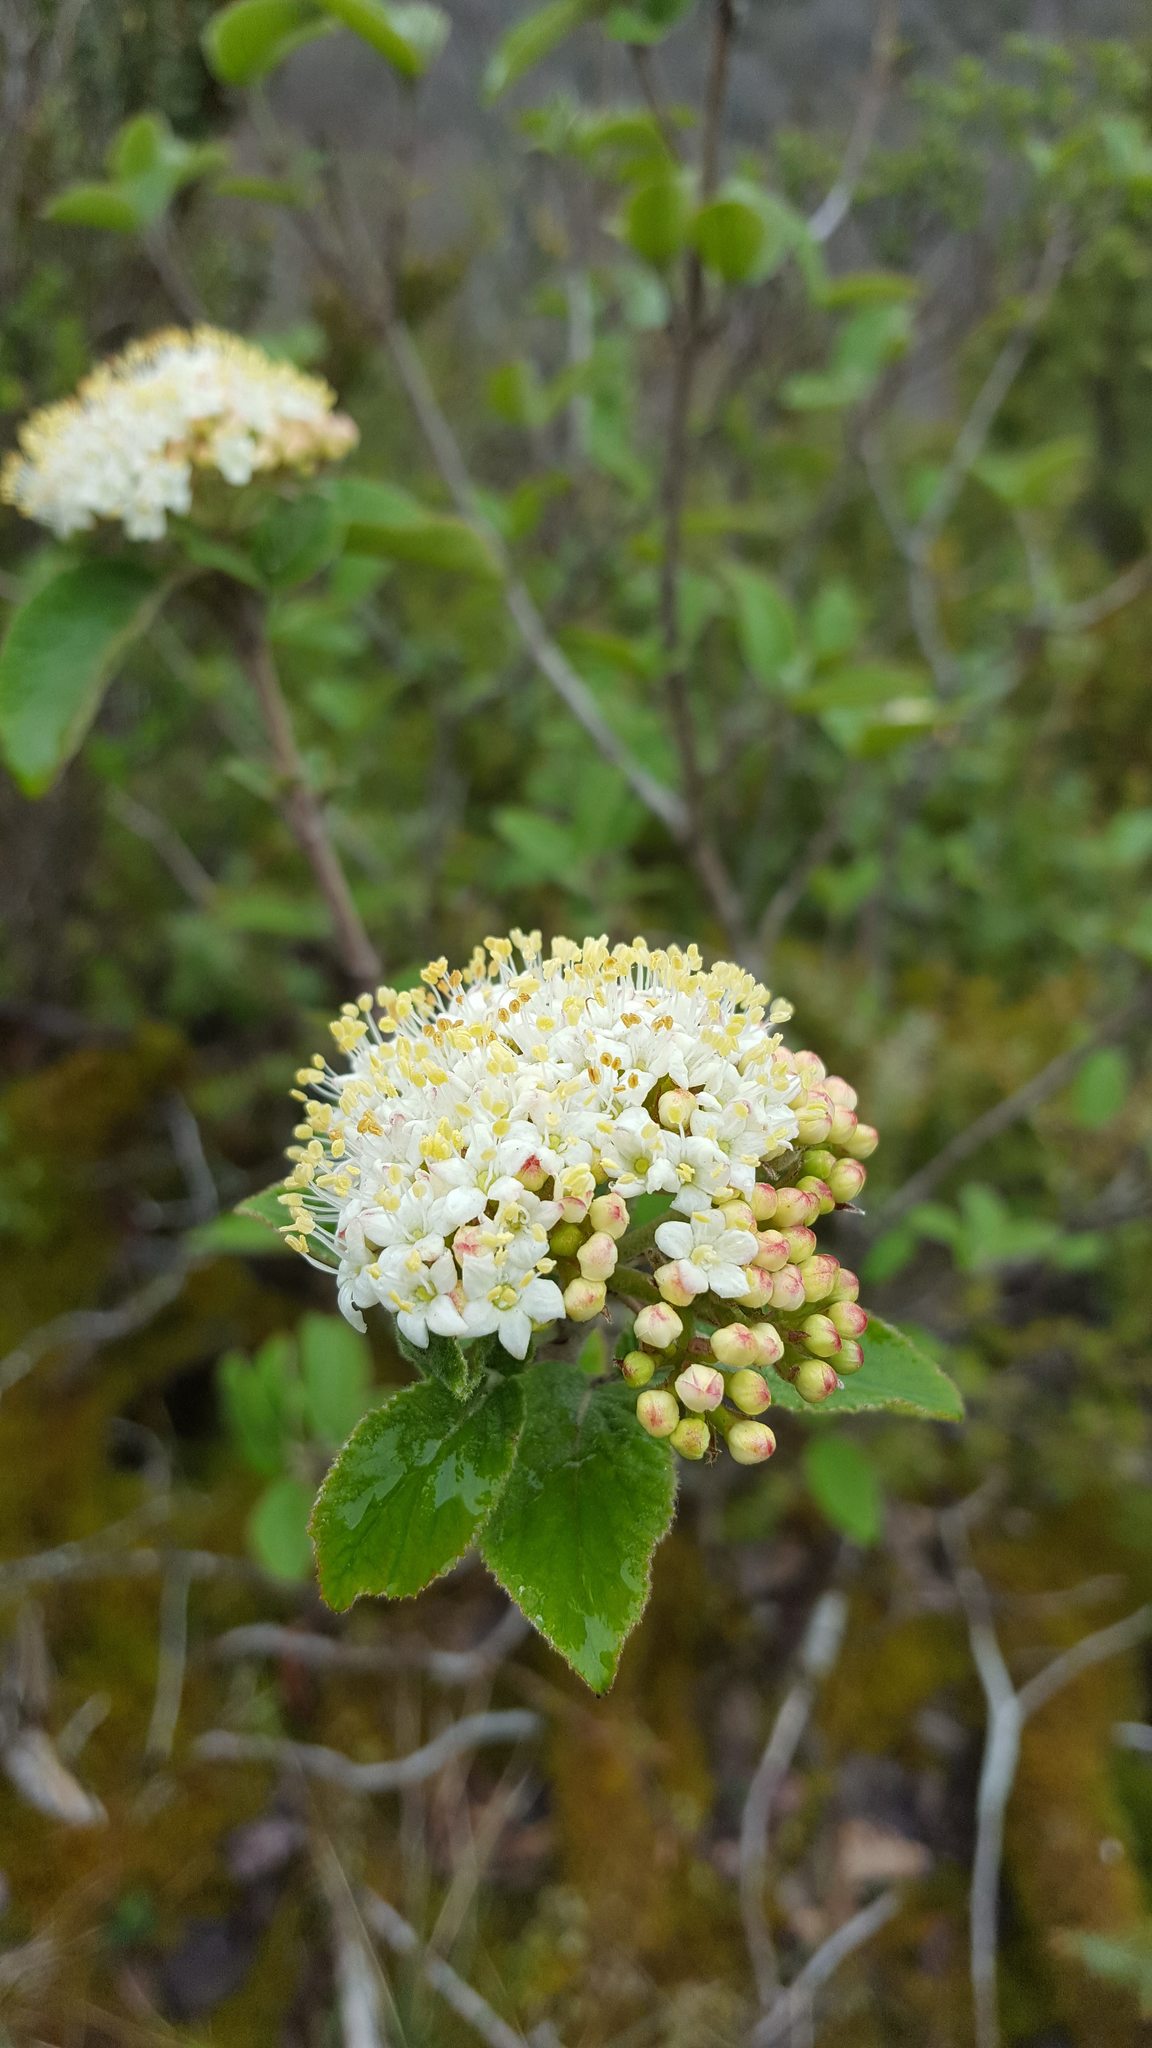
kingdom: Plantae
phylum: Tracheophyta
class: Magnoliopsida
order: Dipsacales
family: Viburnaceae
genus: Viburnum
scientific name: Viburnum lantana
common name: Wayfaring tree
